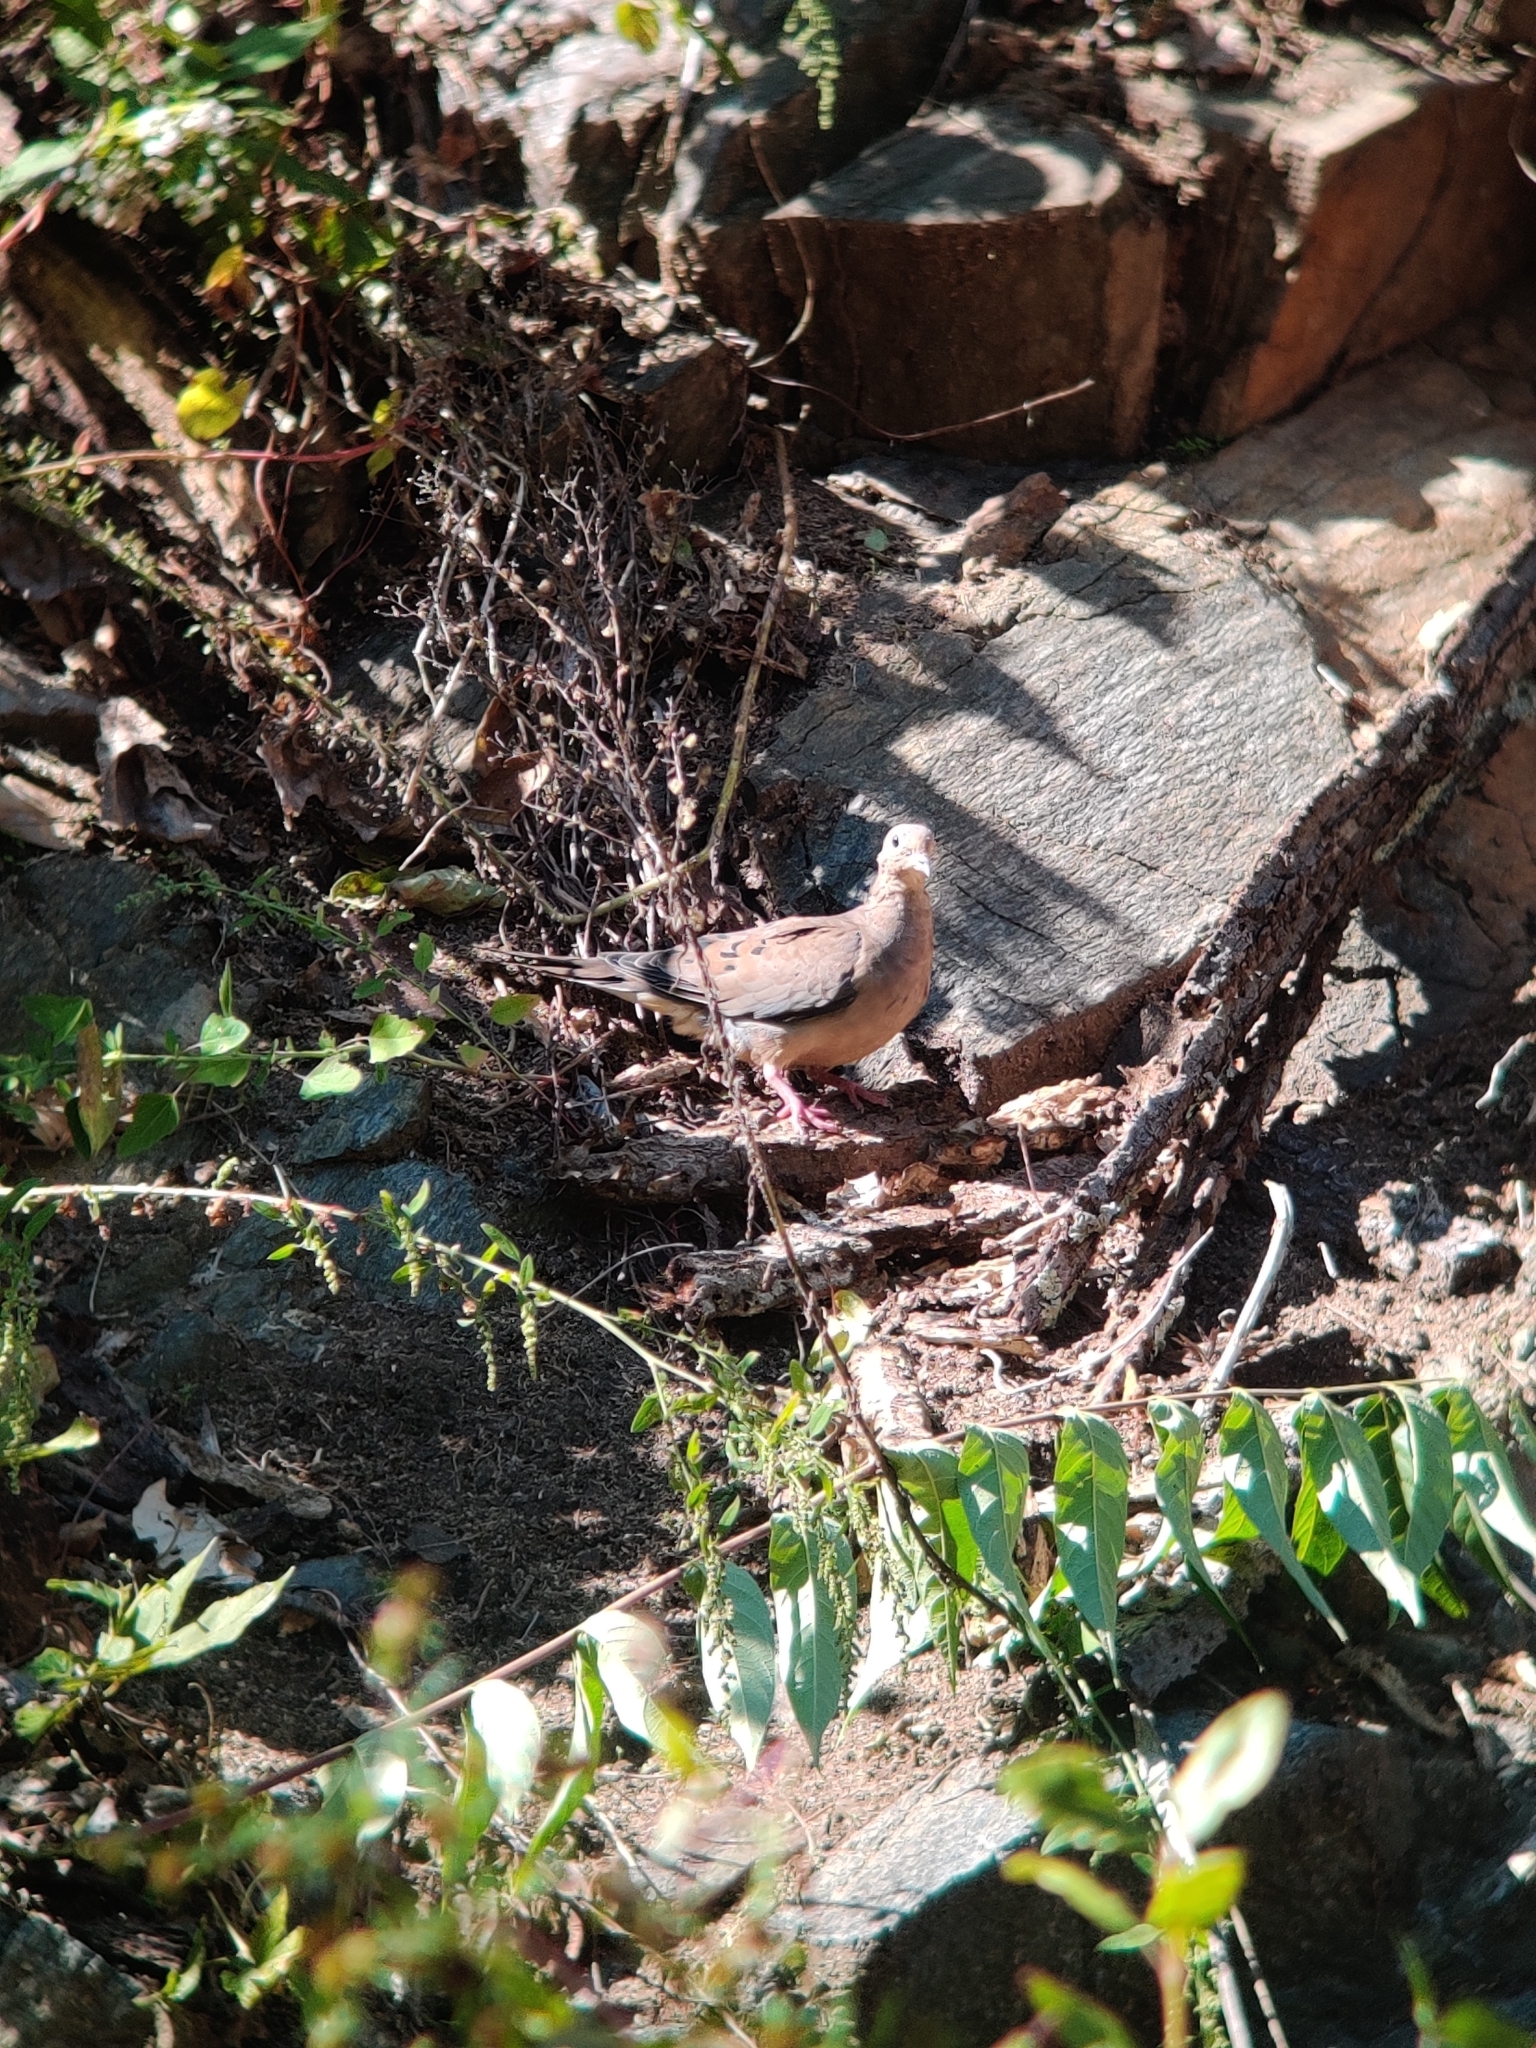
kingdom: Animalia
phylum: Chordata
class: Aves
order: Columbiformes
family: Columbidae
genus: Zenaida
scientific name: Zenaida macroura
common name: Mourning dove
